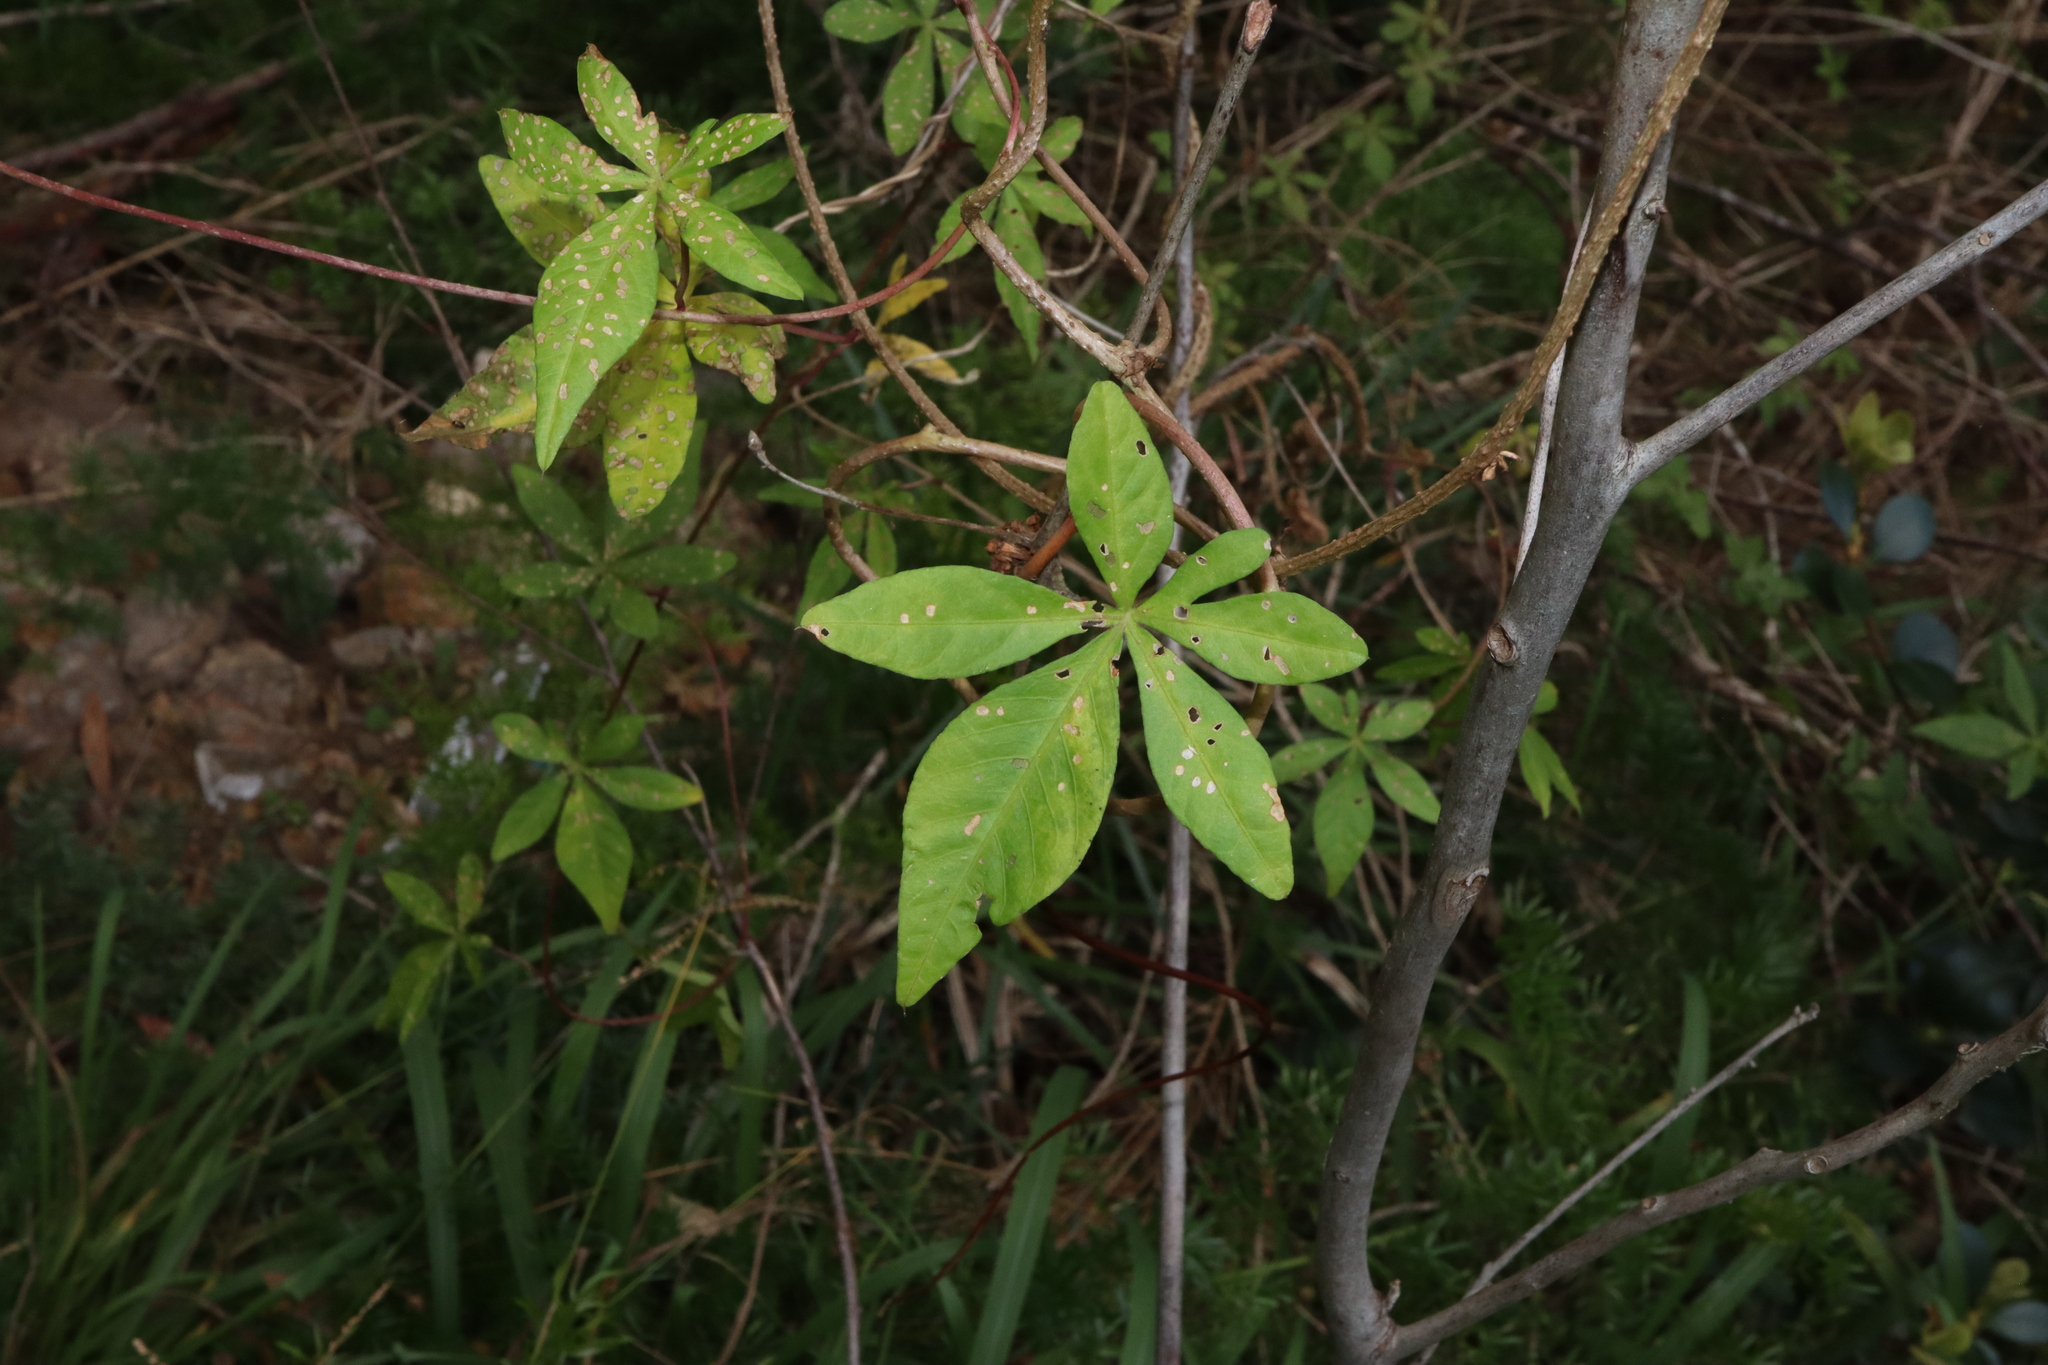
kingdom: Plantae
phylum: Tracheophyta
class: Magnoliopsida
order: Solanales
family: Convolvulaceae
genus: Ipomoea
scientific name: Ipomoea cairica
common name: Mile a minute vine
